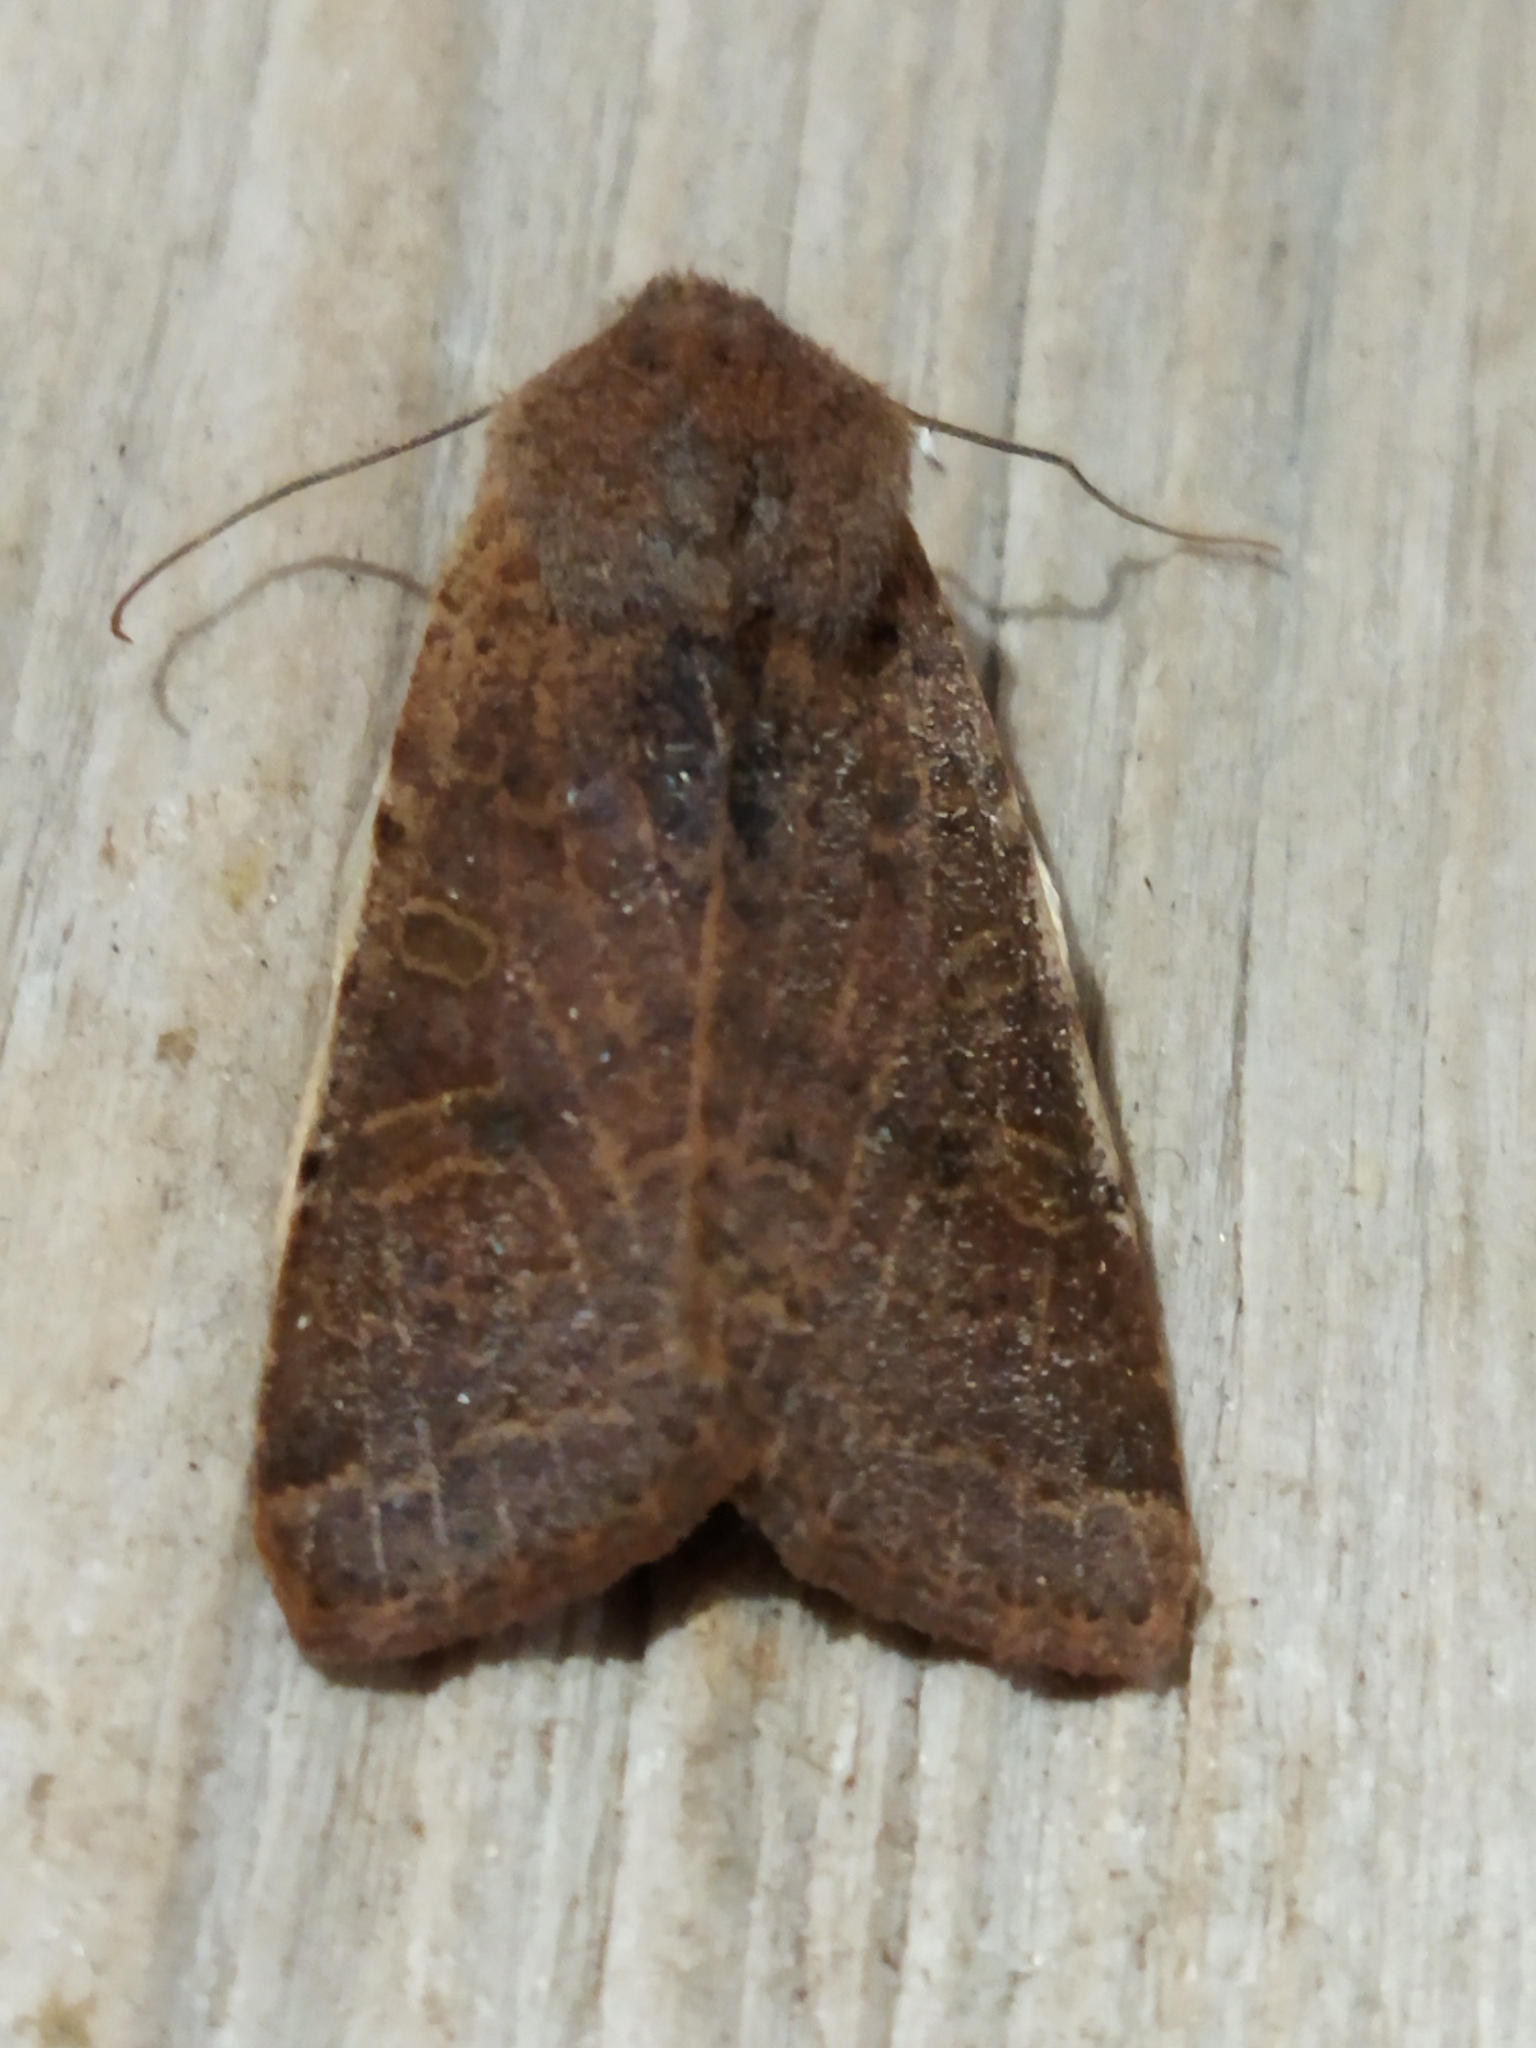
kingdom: Animalia
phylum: Arthropoda
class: Insecta
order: Lepidoptera
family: Noctuidae
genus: Agrochola
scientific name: Agrochola lychnidis
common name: Beaded chestnut
